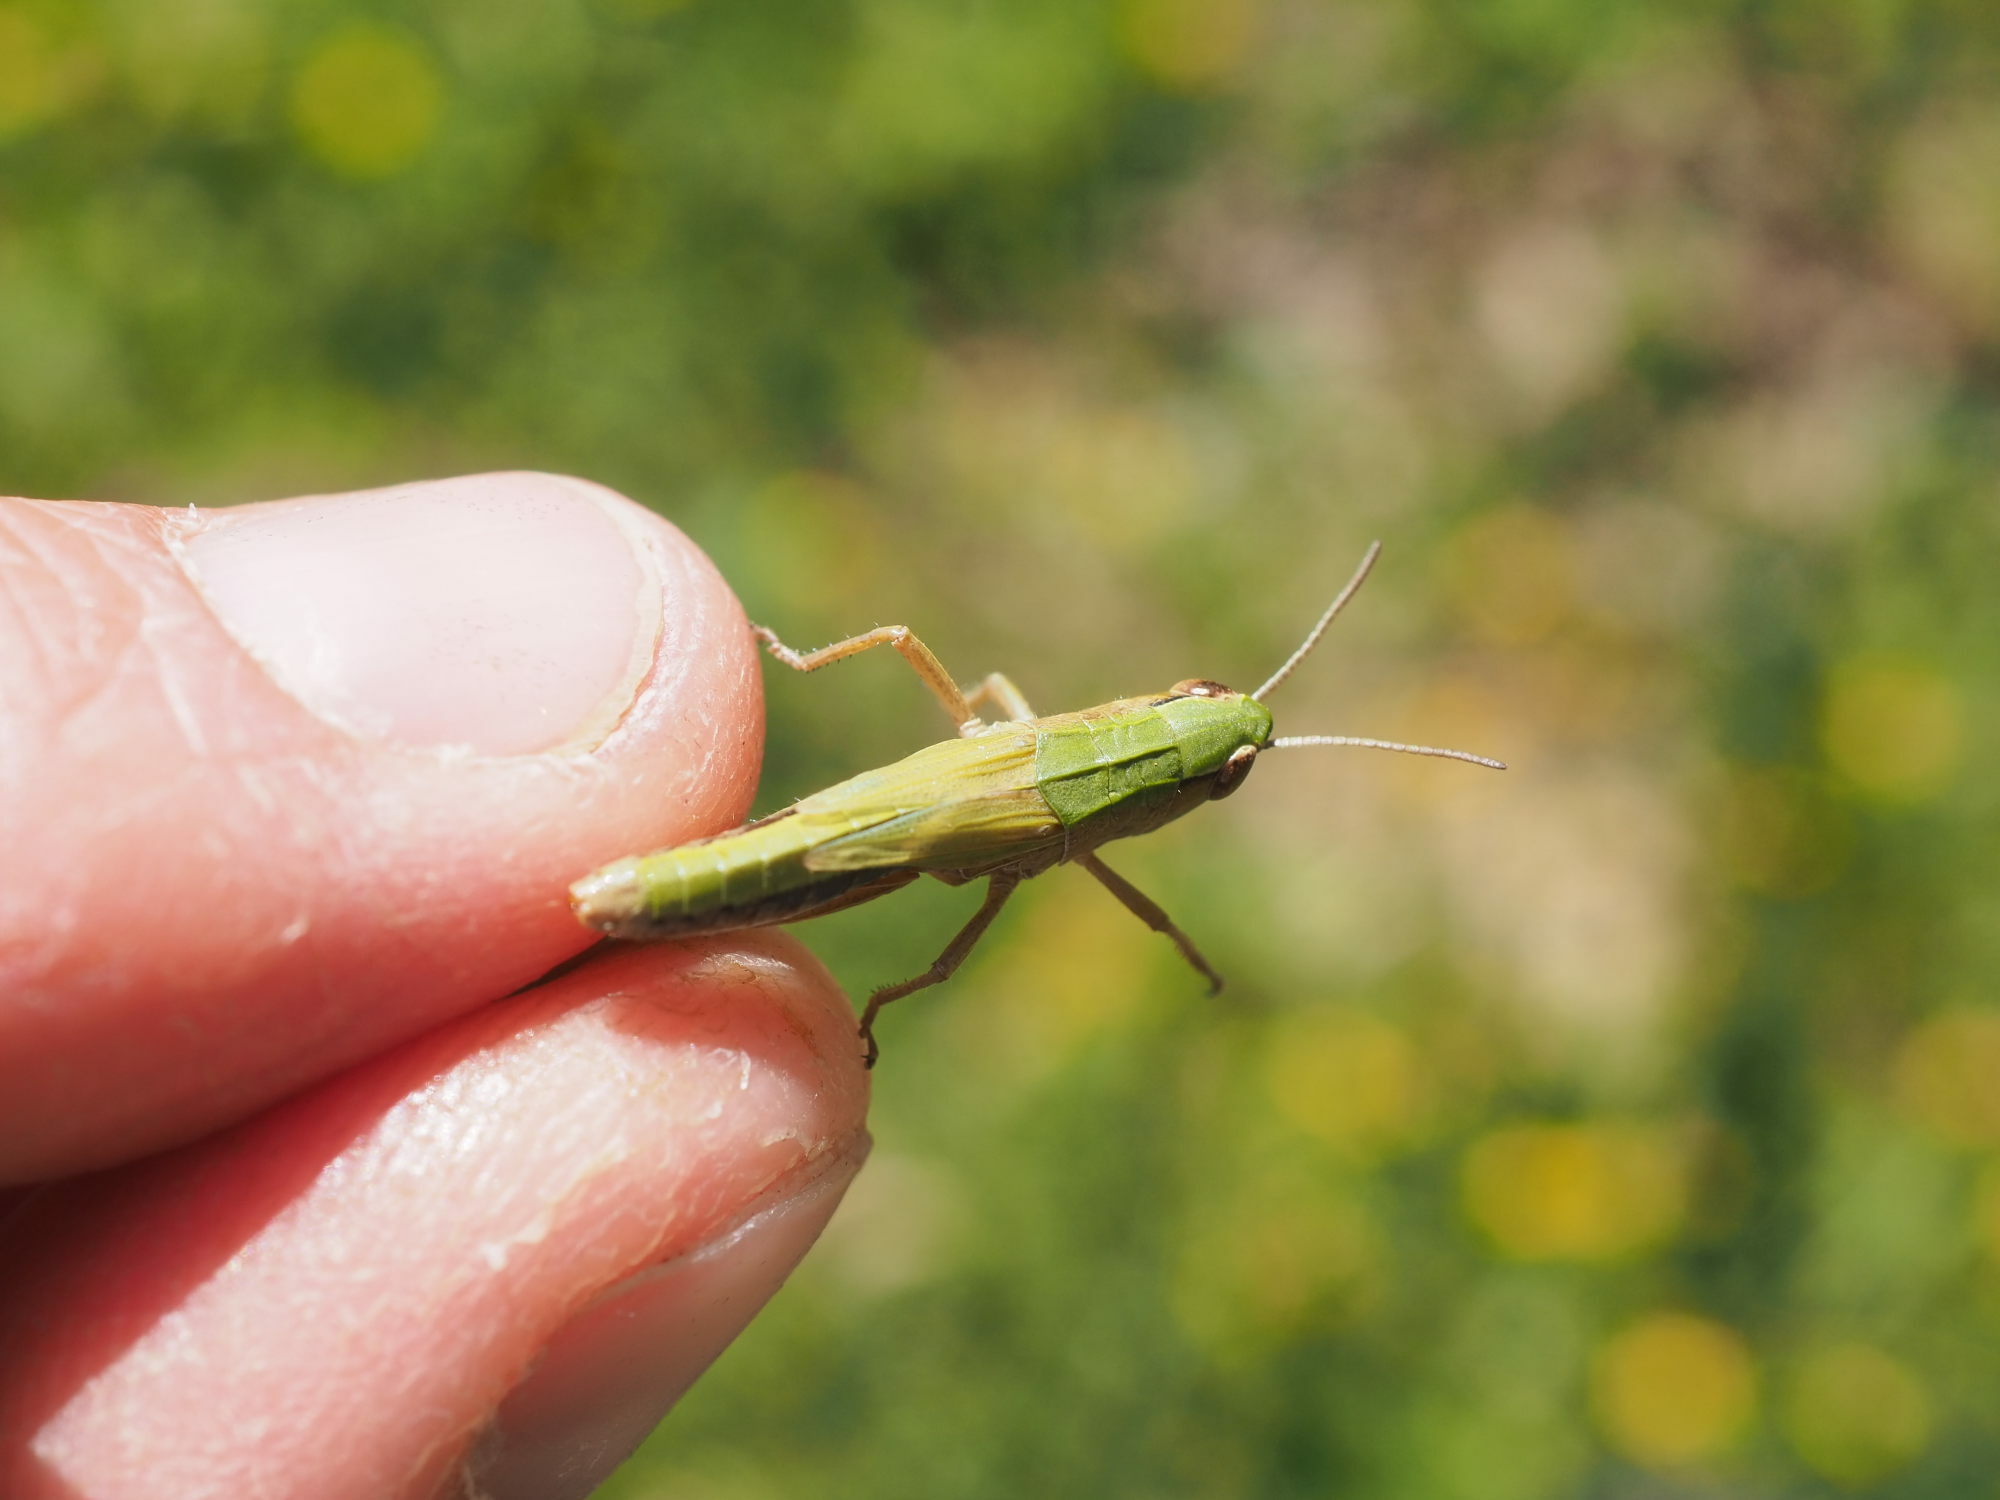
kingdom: Animalia
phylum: Arthropoda
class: Insecta
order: Orthoptera
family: Acrididae
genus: Pseudochorthippus
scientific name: Pseudochorthippus parallelus
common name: Meadow grasshopper
